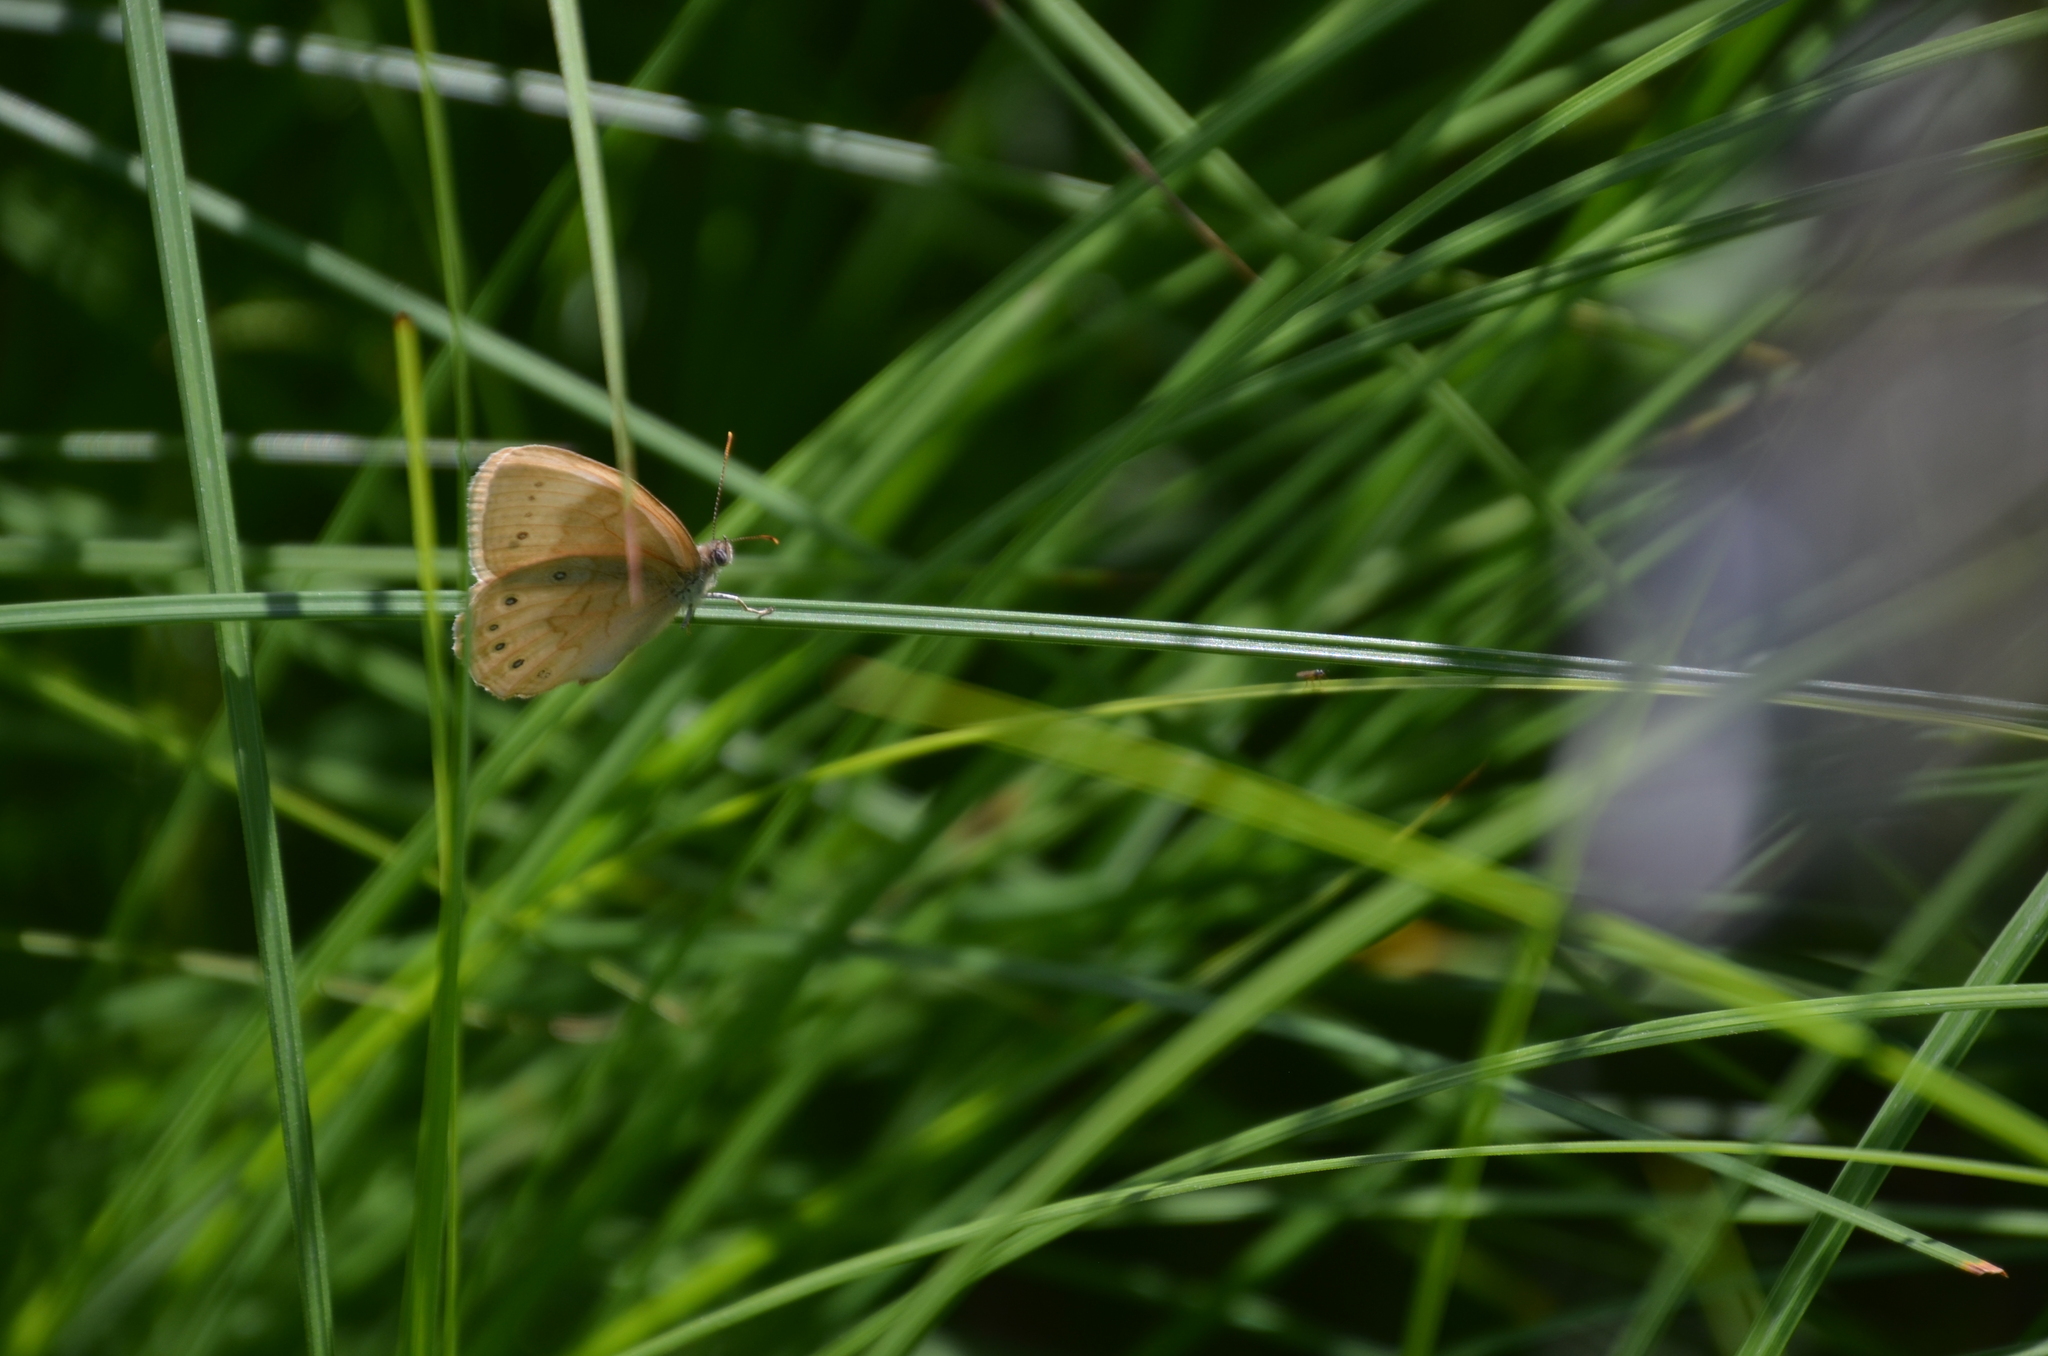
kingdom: Animalia
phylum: Arthropoda
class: Insecta
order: Lepidoptera
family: Nymphalidae
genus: Lethe
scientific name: Lethe eurydice
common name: Eyed brown
